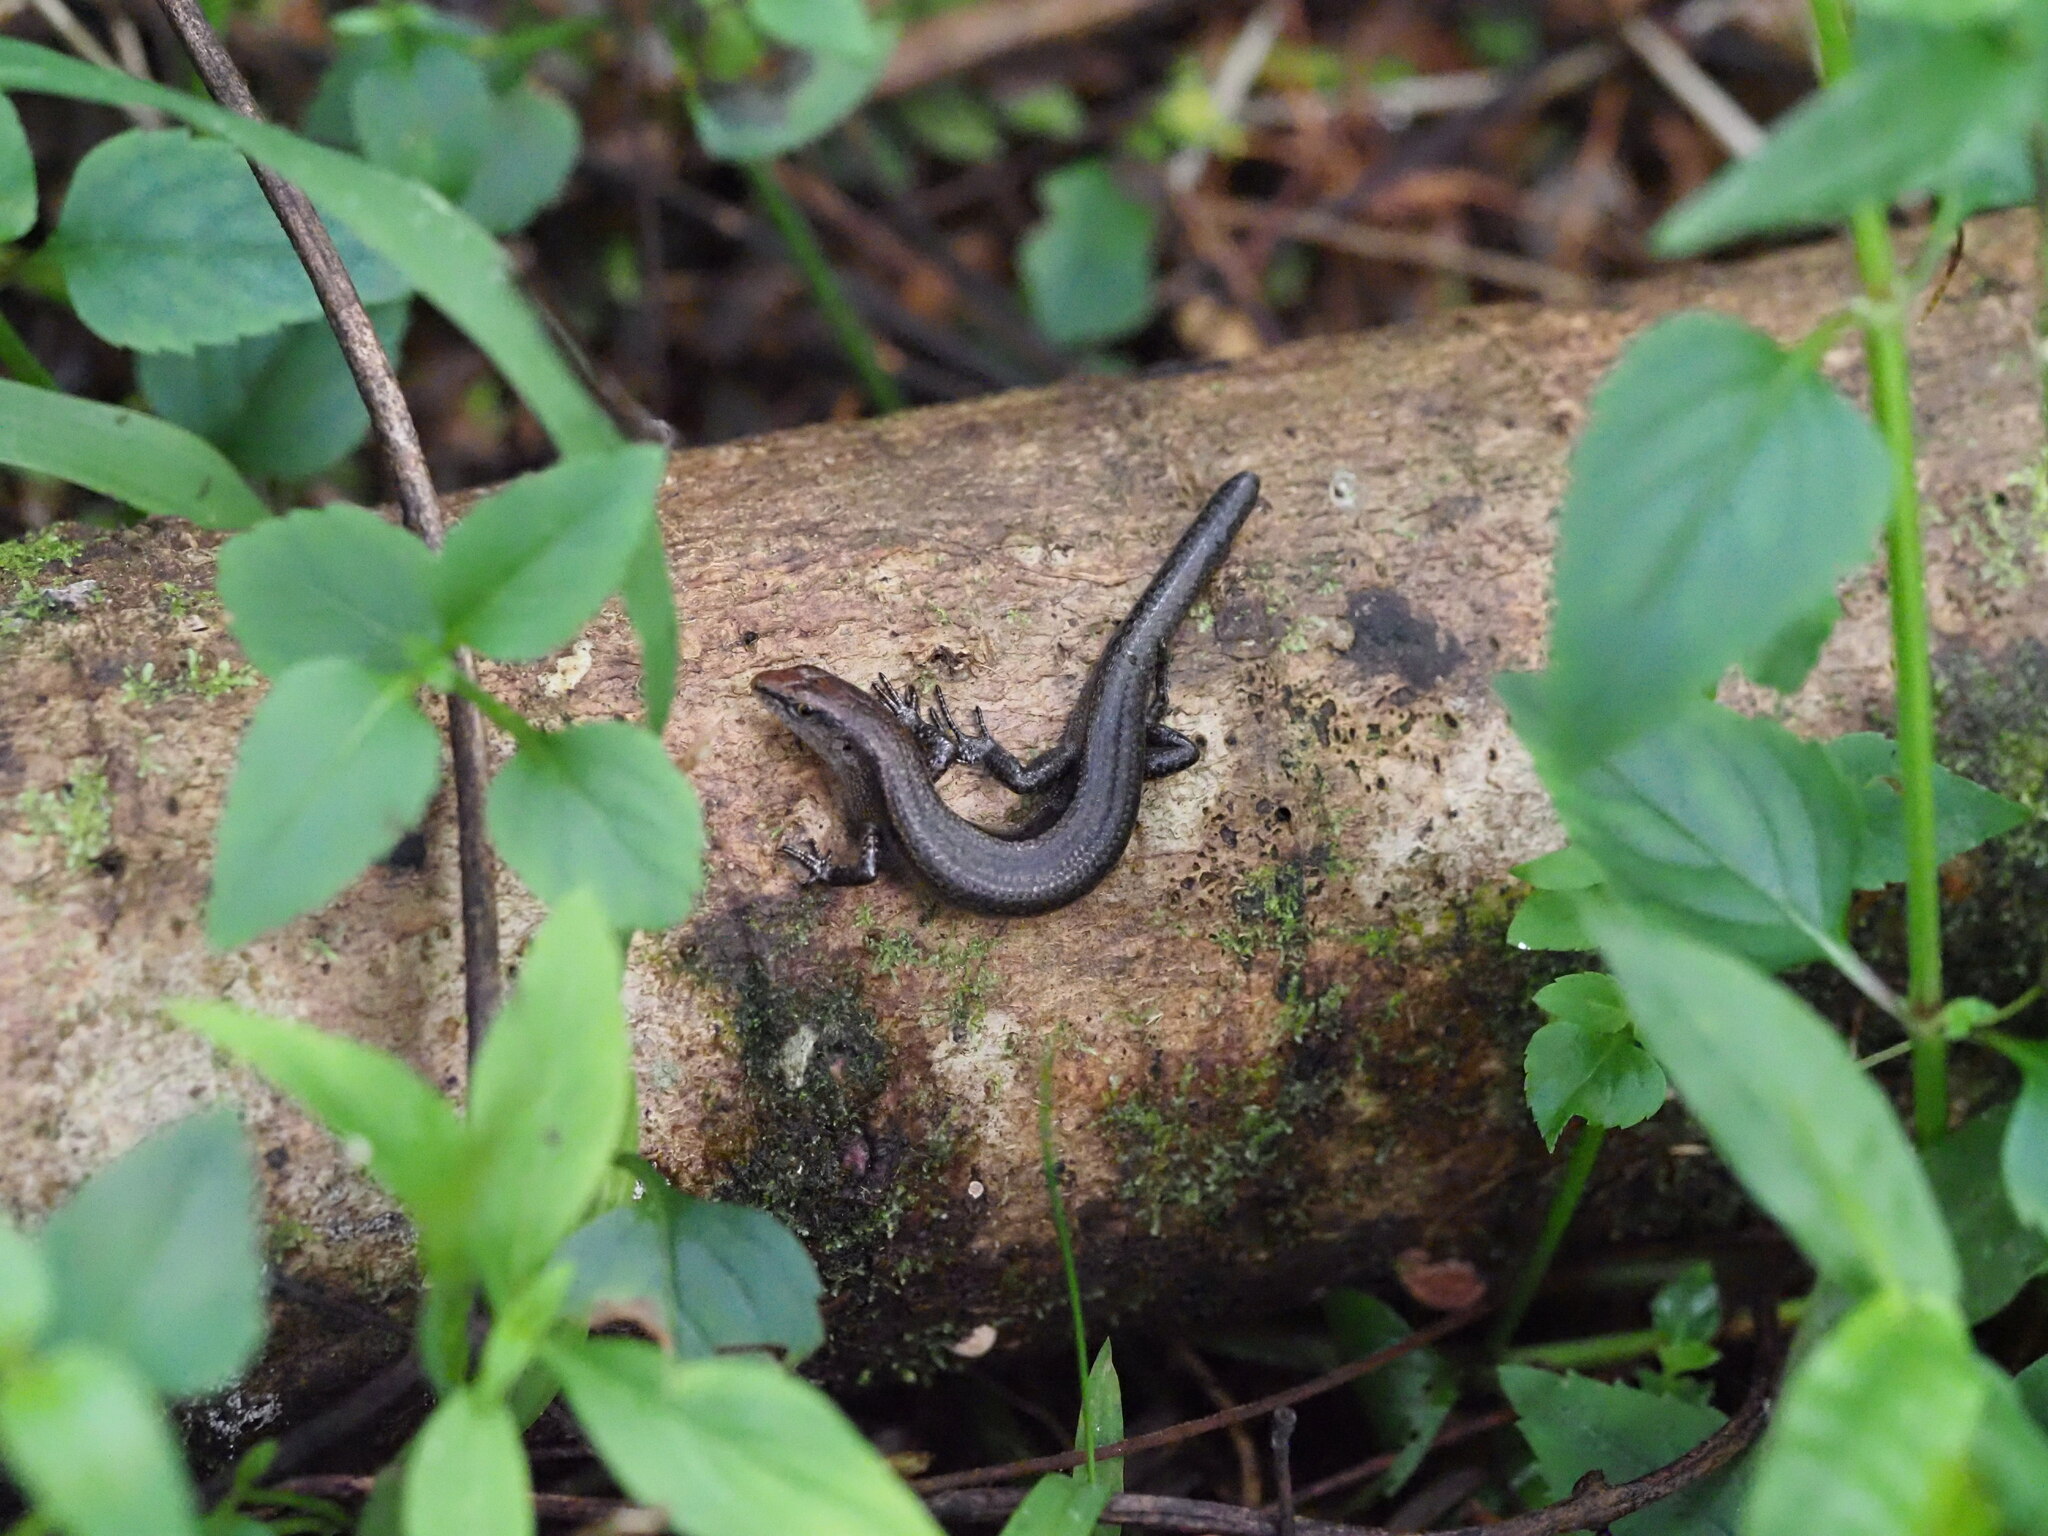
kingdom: Animalia
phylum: Chordata
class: Squamata
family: Scincidae
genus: Lampropholis
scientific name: Lampropholis delicata
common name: Plague skink
